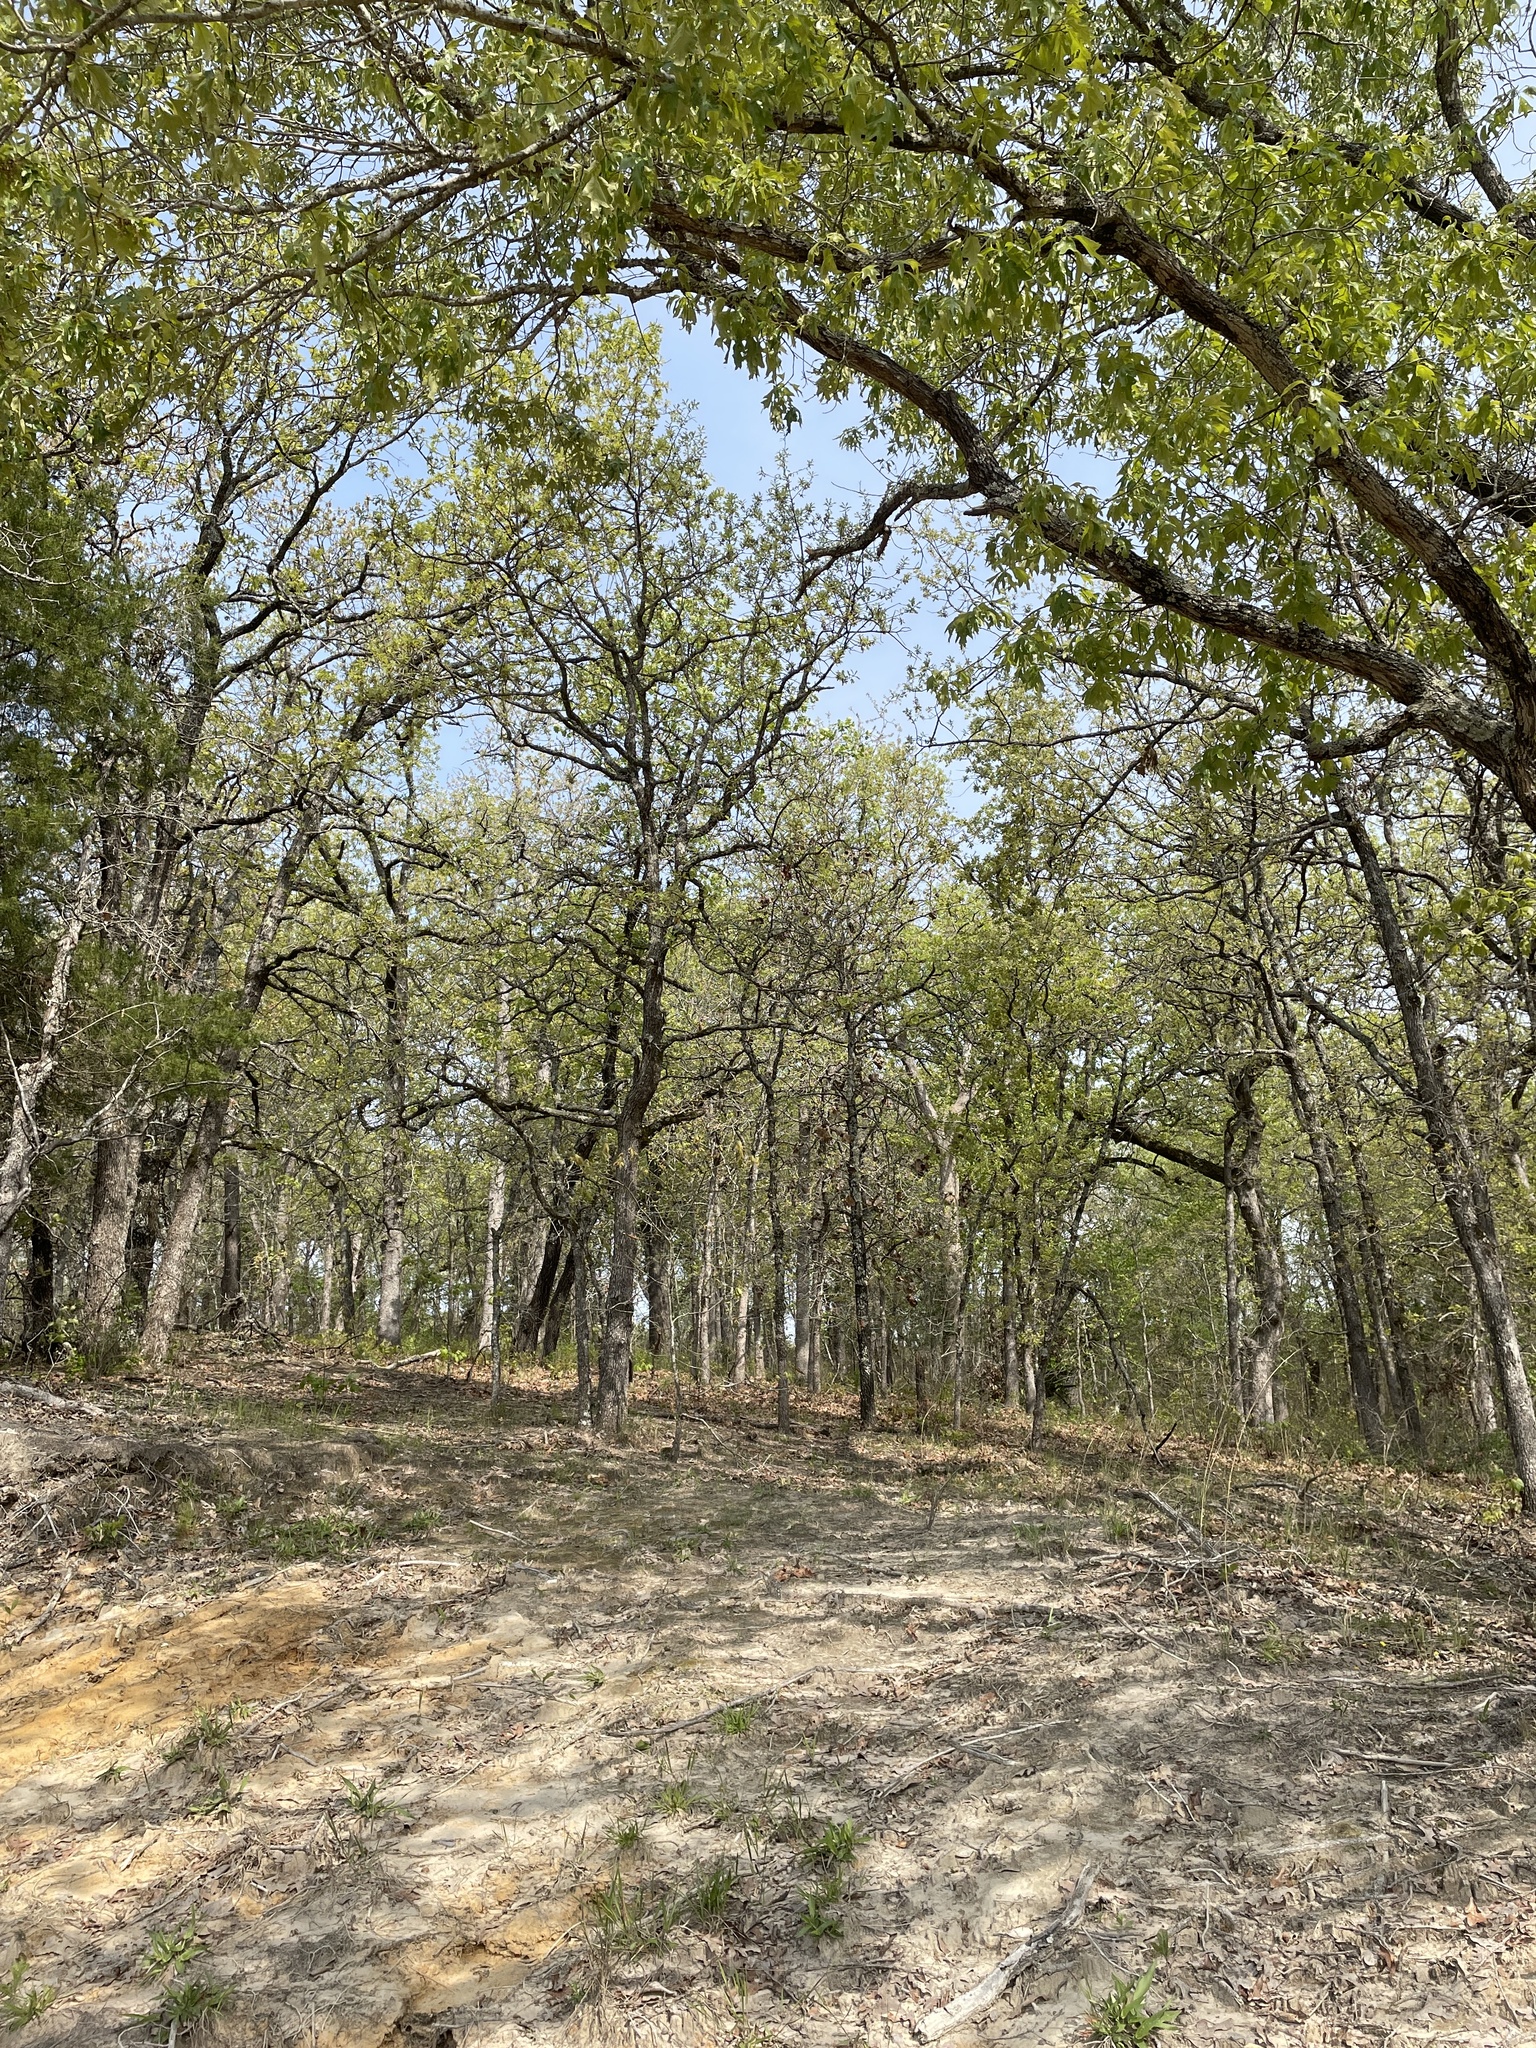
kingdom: Animalia
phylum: Chordata
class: Aves
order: Passeriformes
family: Parulidae
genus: Mniotilta
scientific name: Mniotilta varia
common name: Black-and-white warbler
